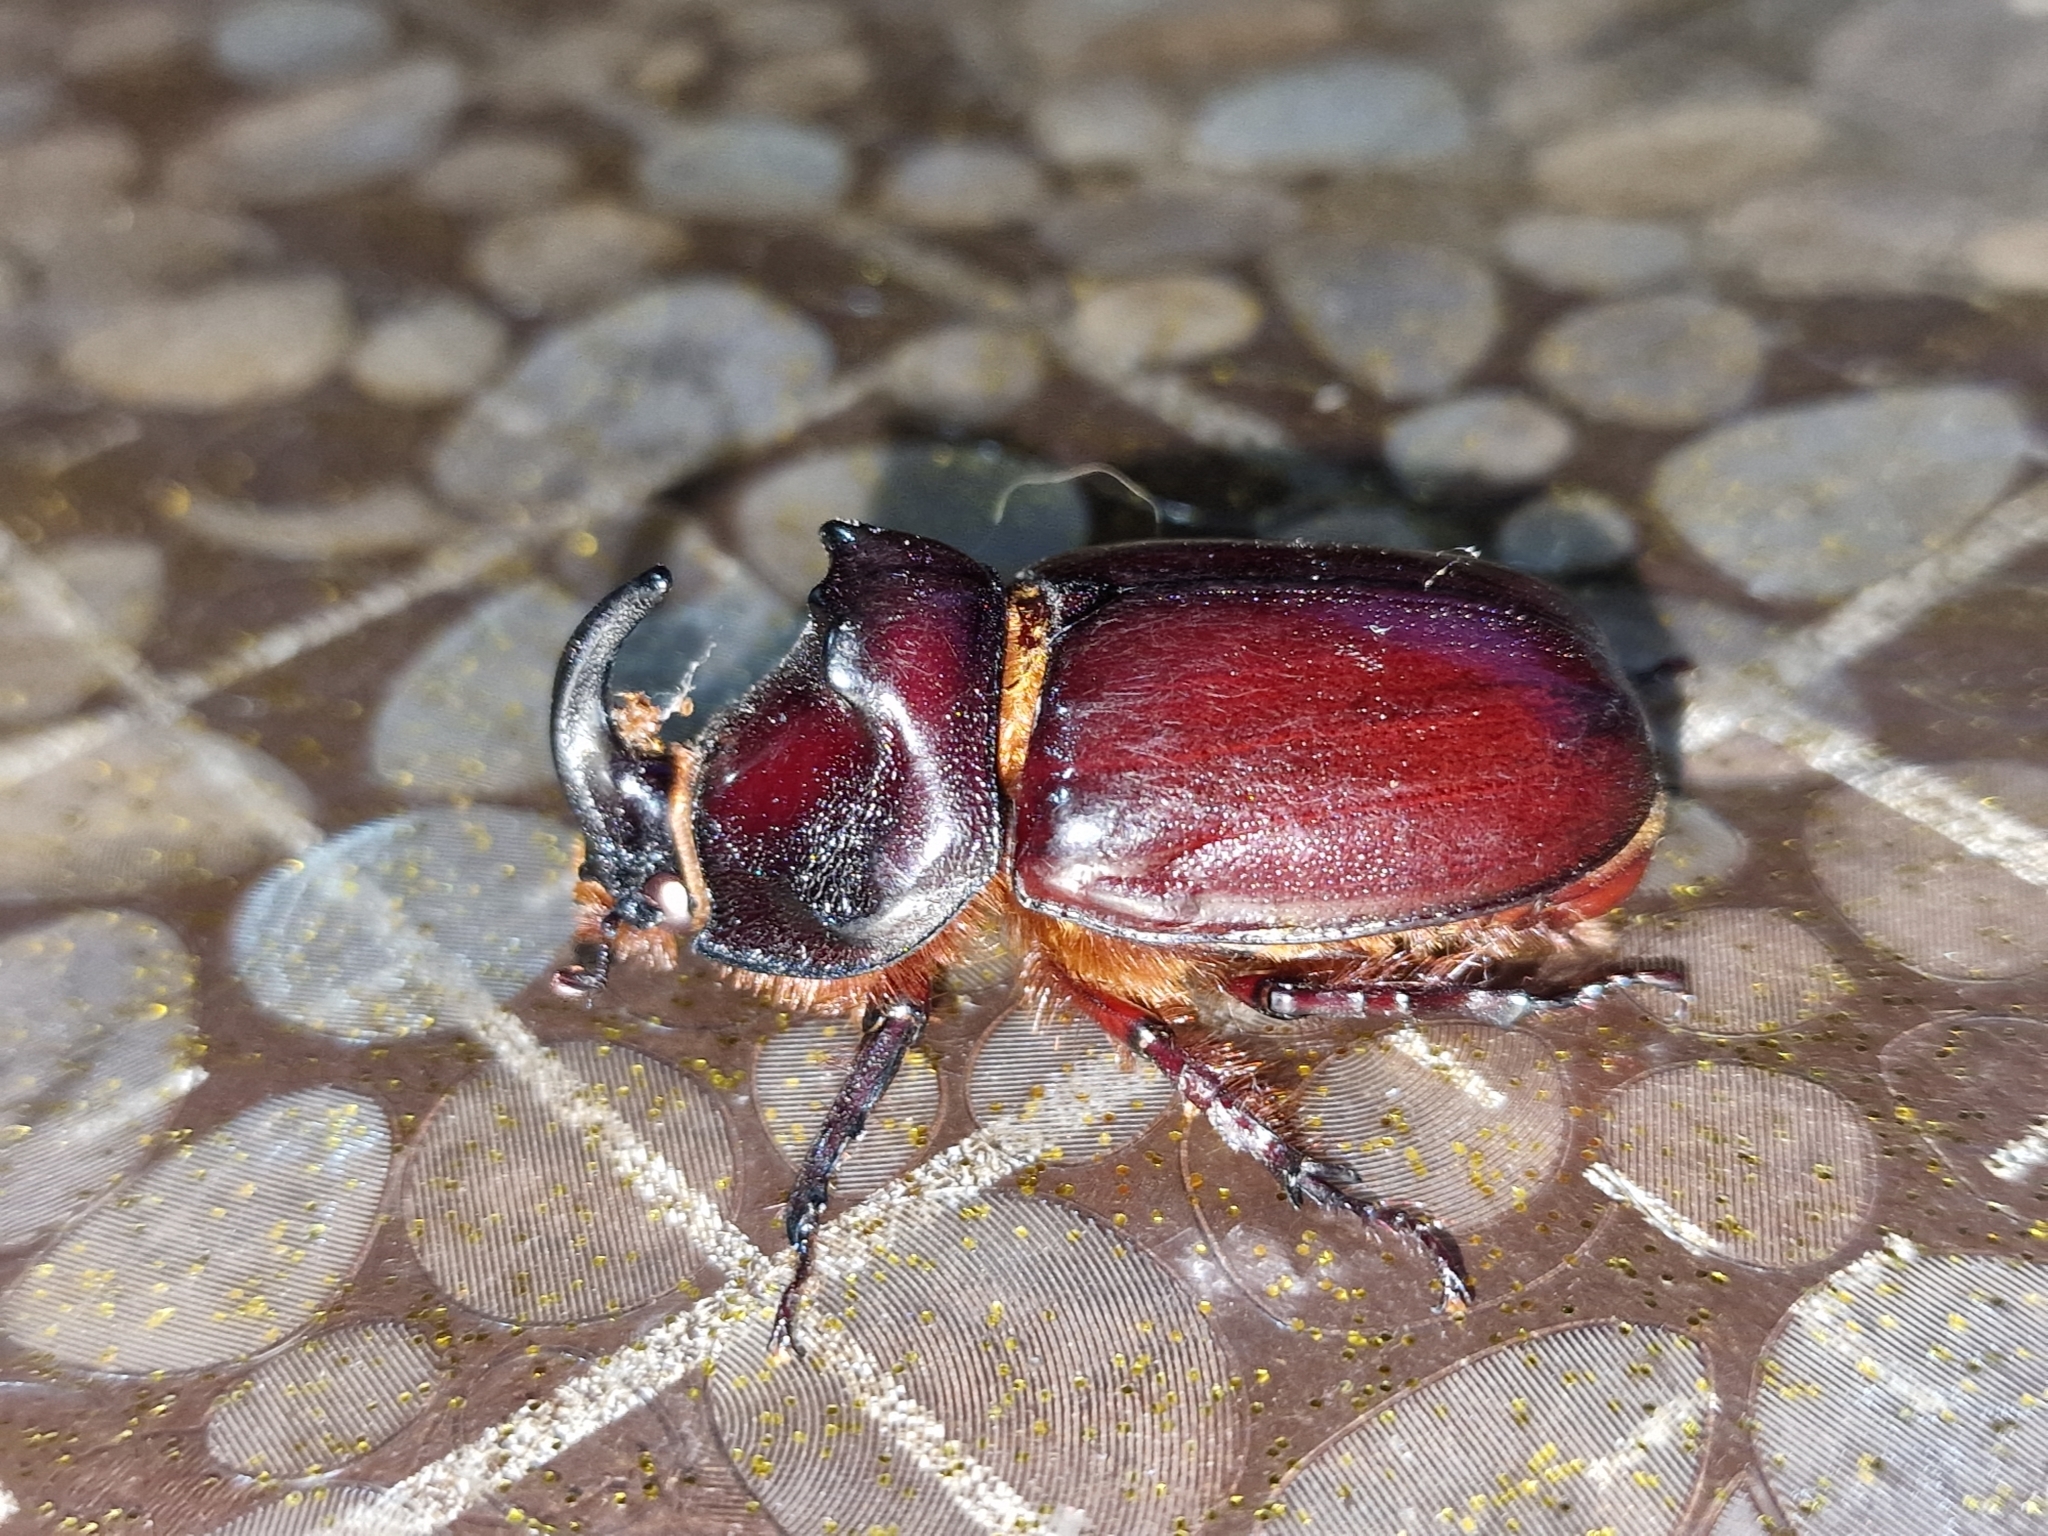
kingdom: Animalia
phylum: Arthropoda
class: Insecta
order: Coleoptera
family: Scarabaeidae
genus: Oryctes
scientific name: Oryctes nasicornis
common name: European rhinoceros beetle
